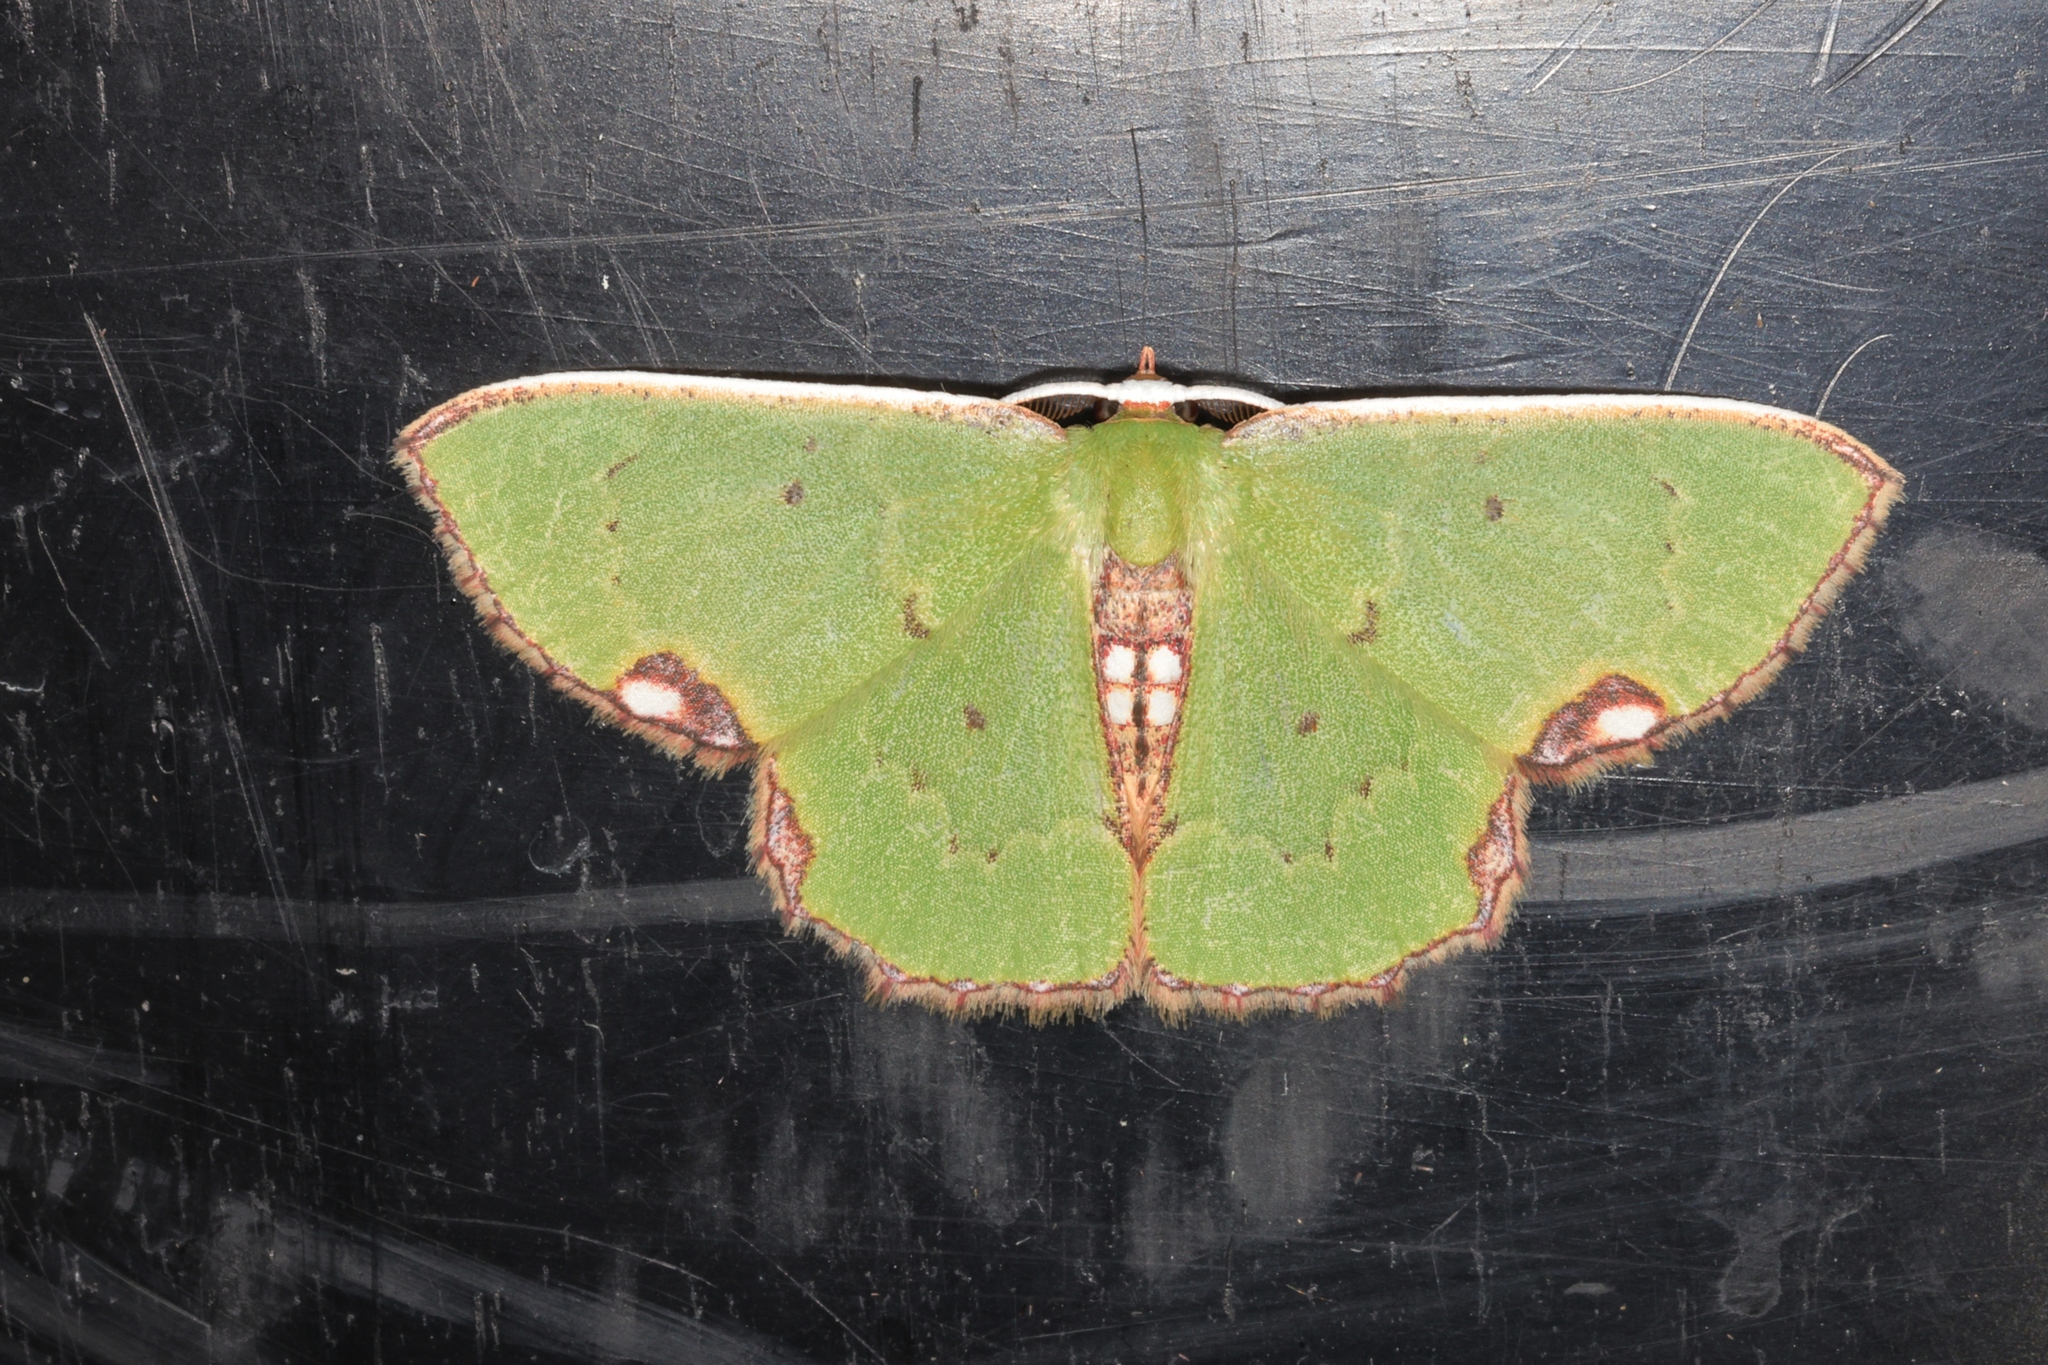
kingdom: Animalia
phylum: Arthropoda
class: Insecta
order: Lepidoptera
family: Geometridae
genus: Spaniocentra
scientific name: Spaniocentra kuniyukii
